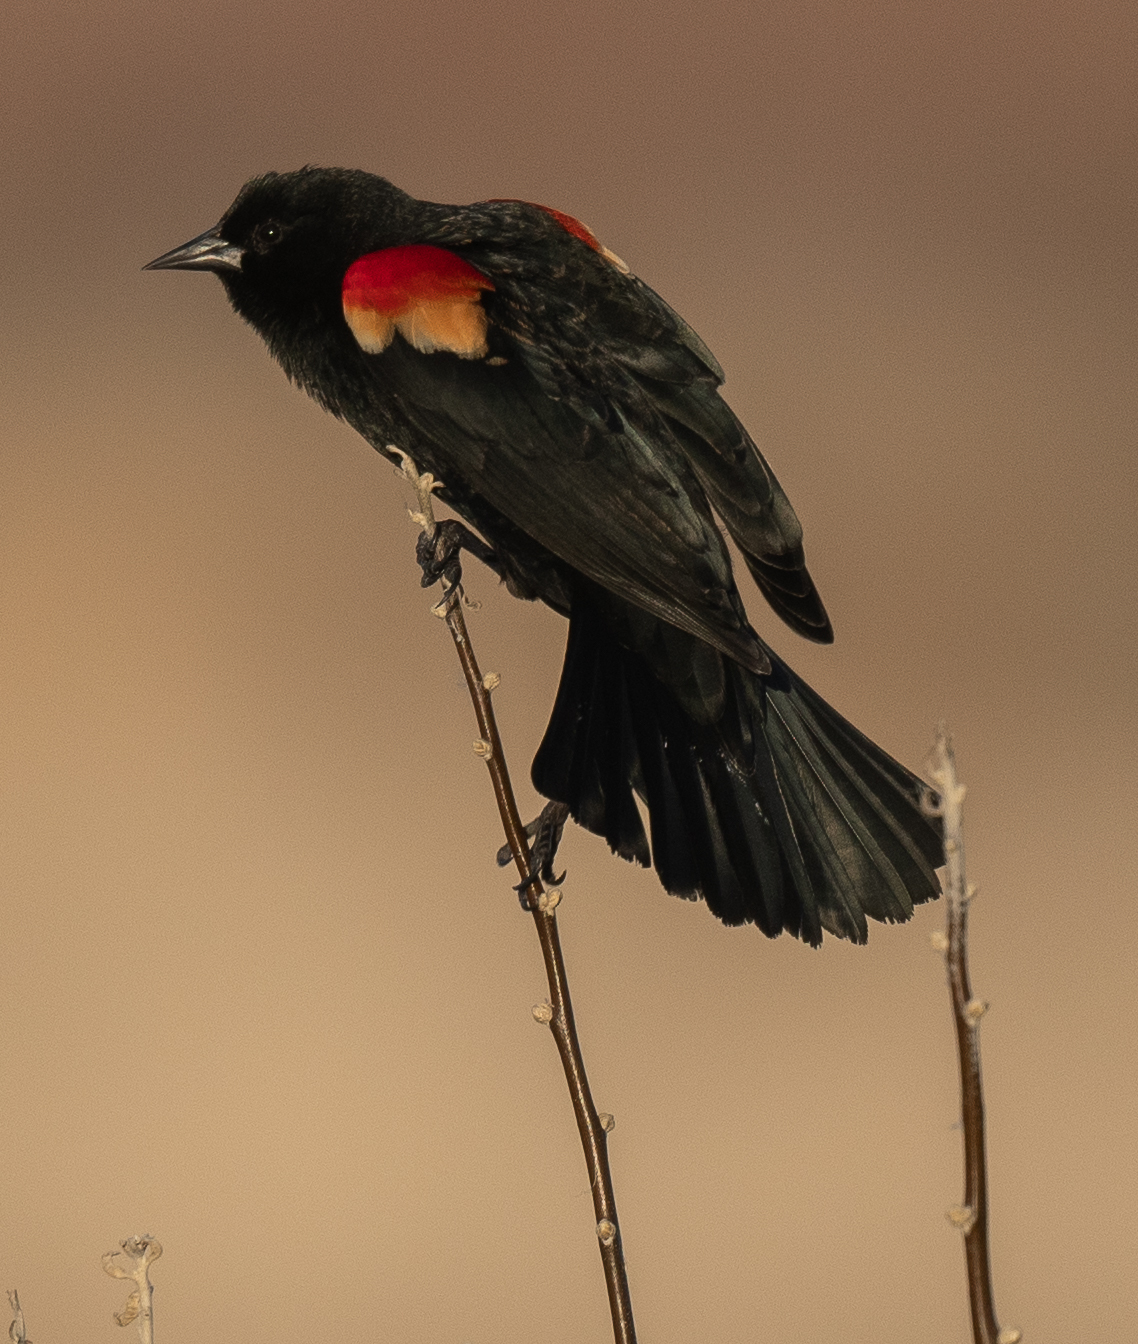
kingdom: Animalia
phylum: Chordata
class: Aves
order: Passeriformes
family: Icteridae
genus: Agelaius
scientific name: Agelaius phoeniceus
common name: Red-winged blackbird
